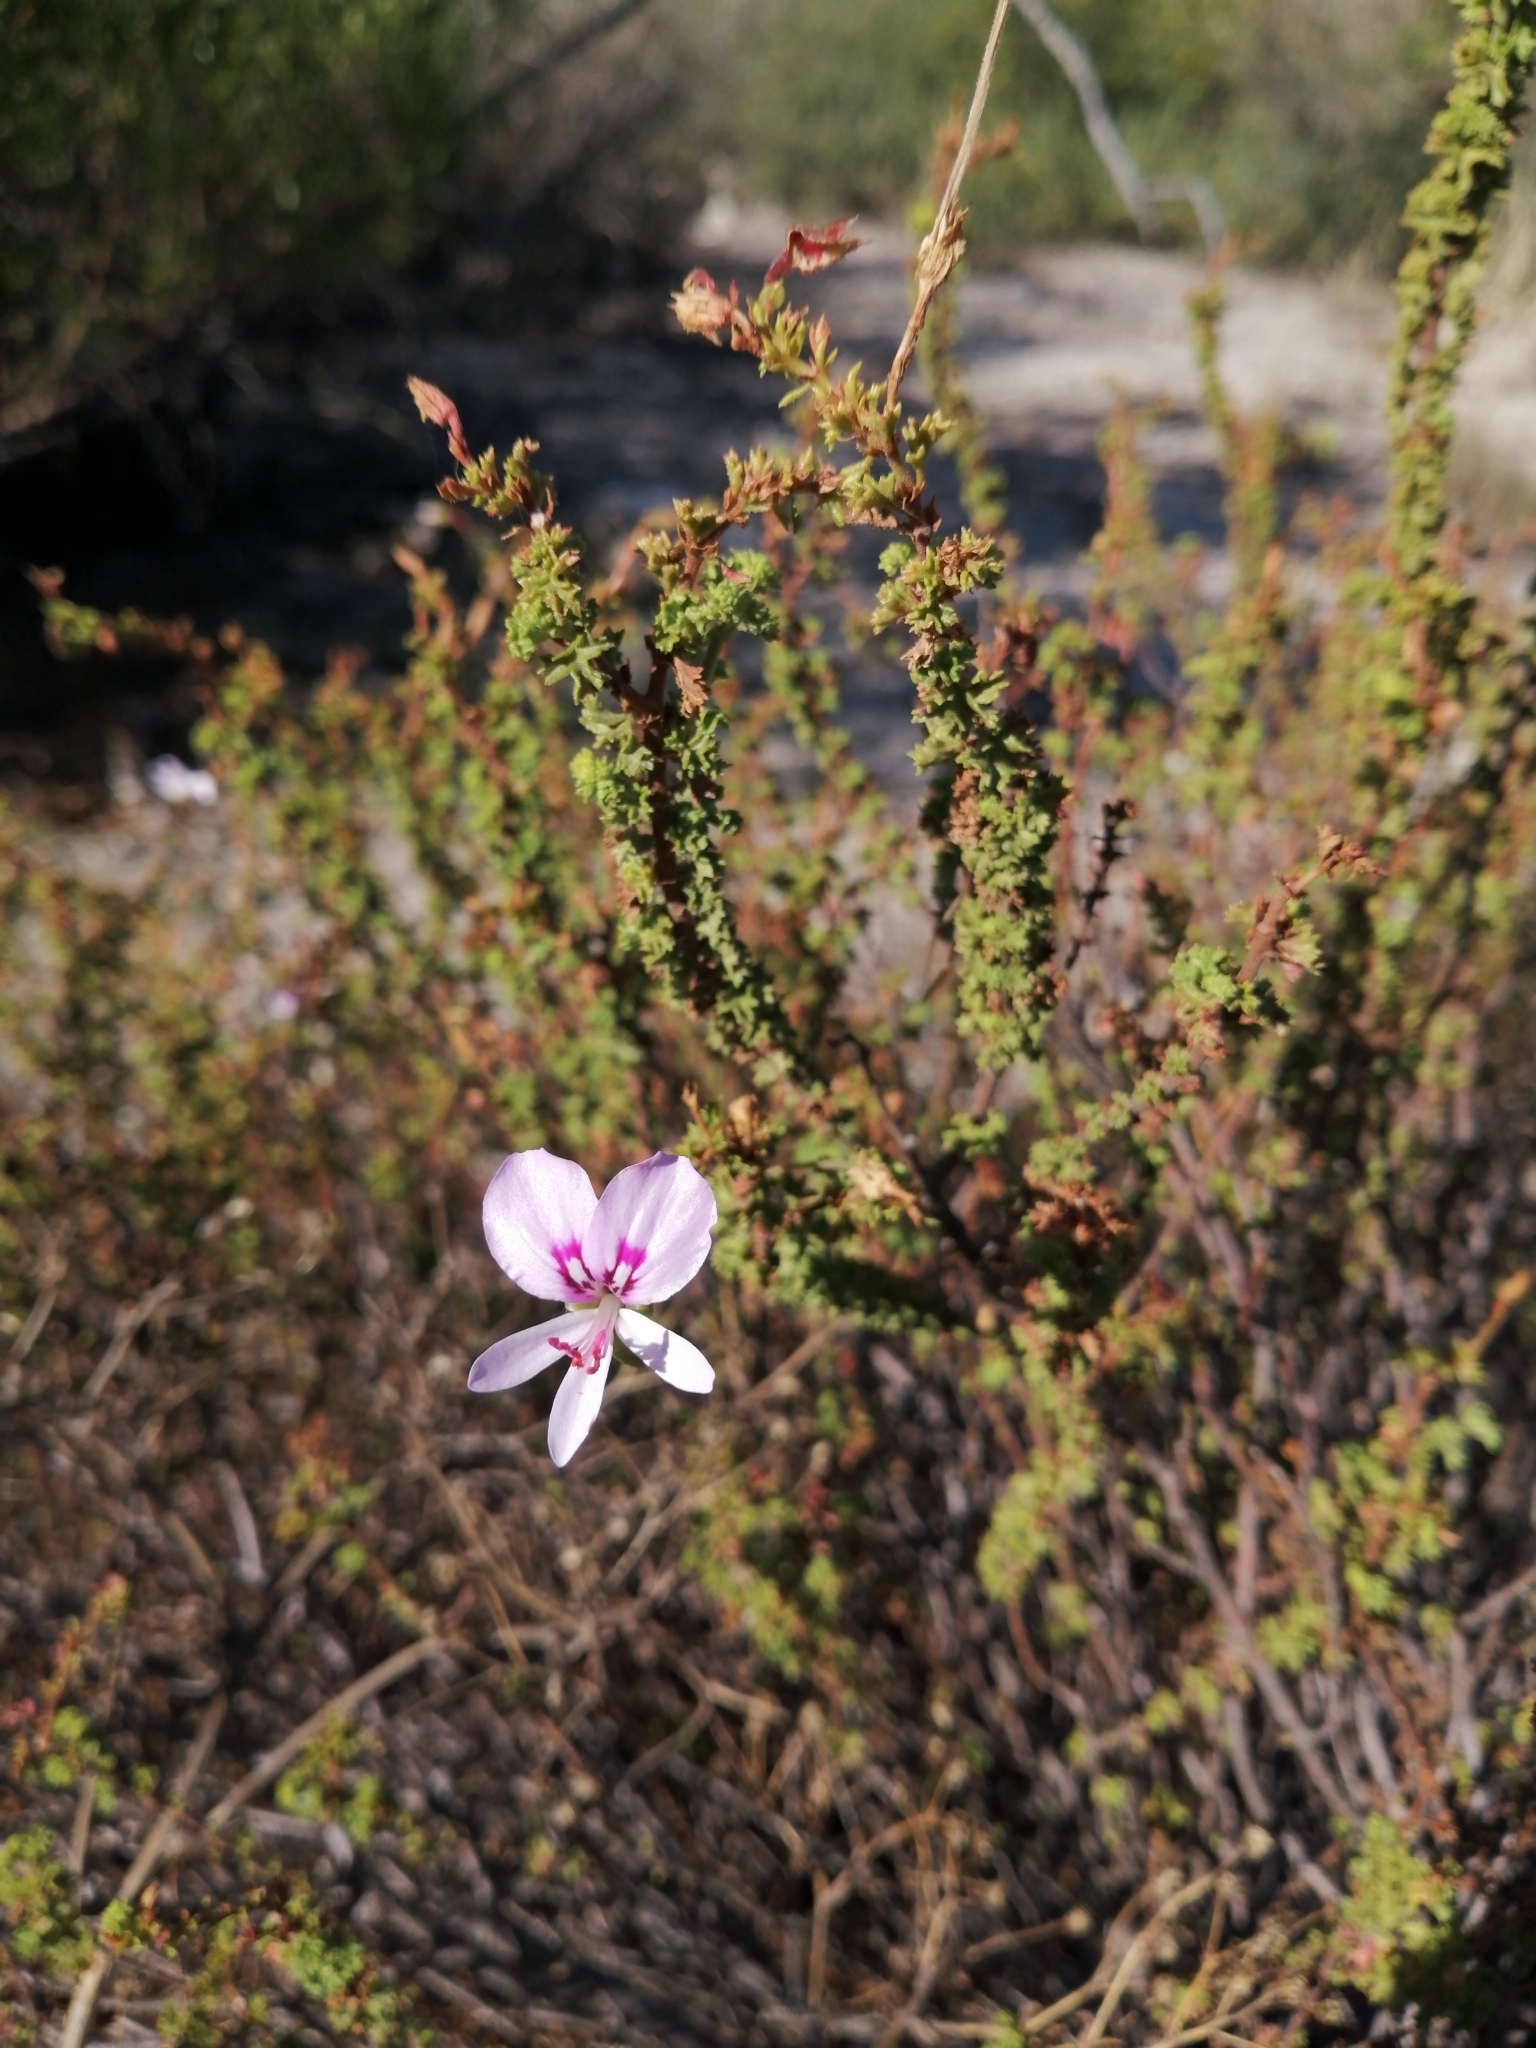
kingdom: Plantae
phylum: Tracheophyta
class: Magnoliopsida
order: Geraniales
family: Geraniaceae
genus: Pelargonium
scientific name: Pelargonium crispum
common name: Crisped-leaf pelargonium
